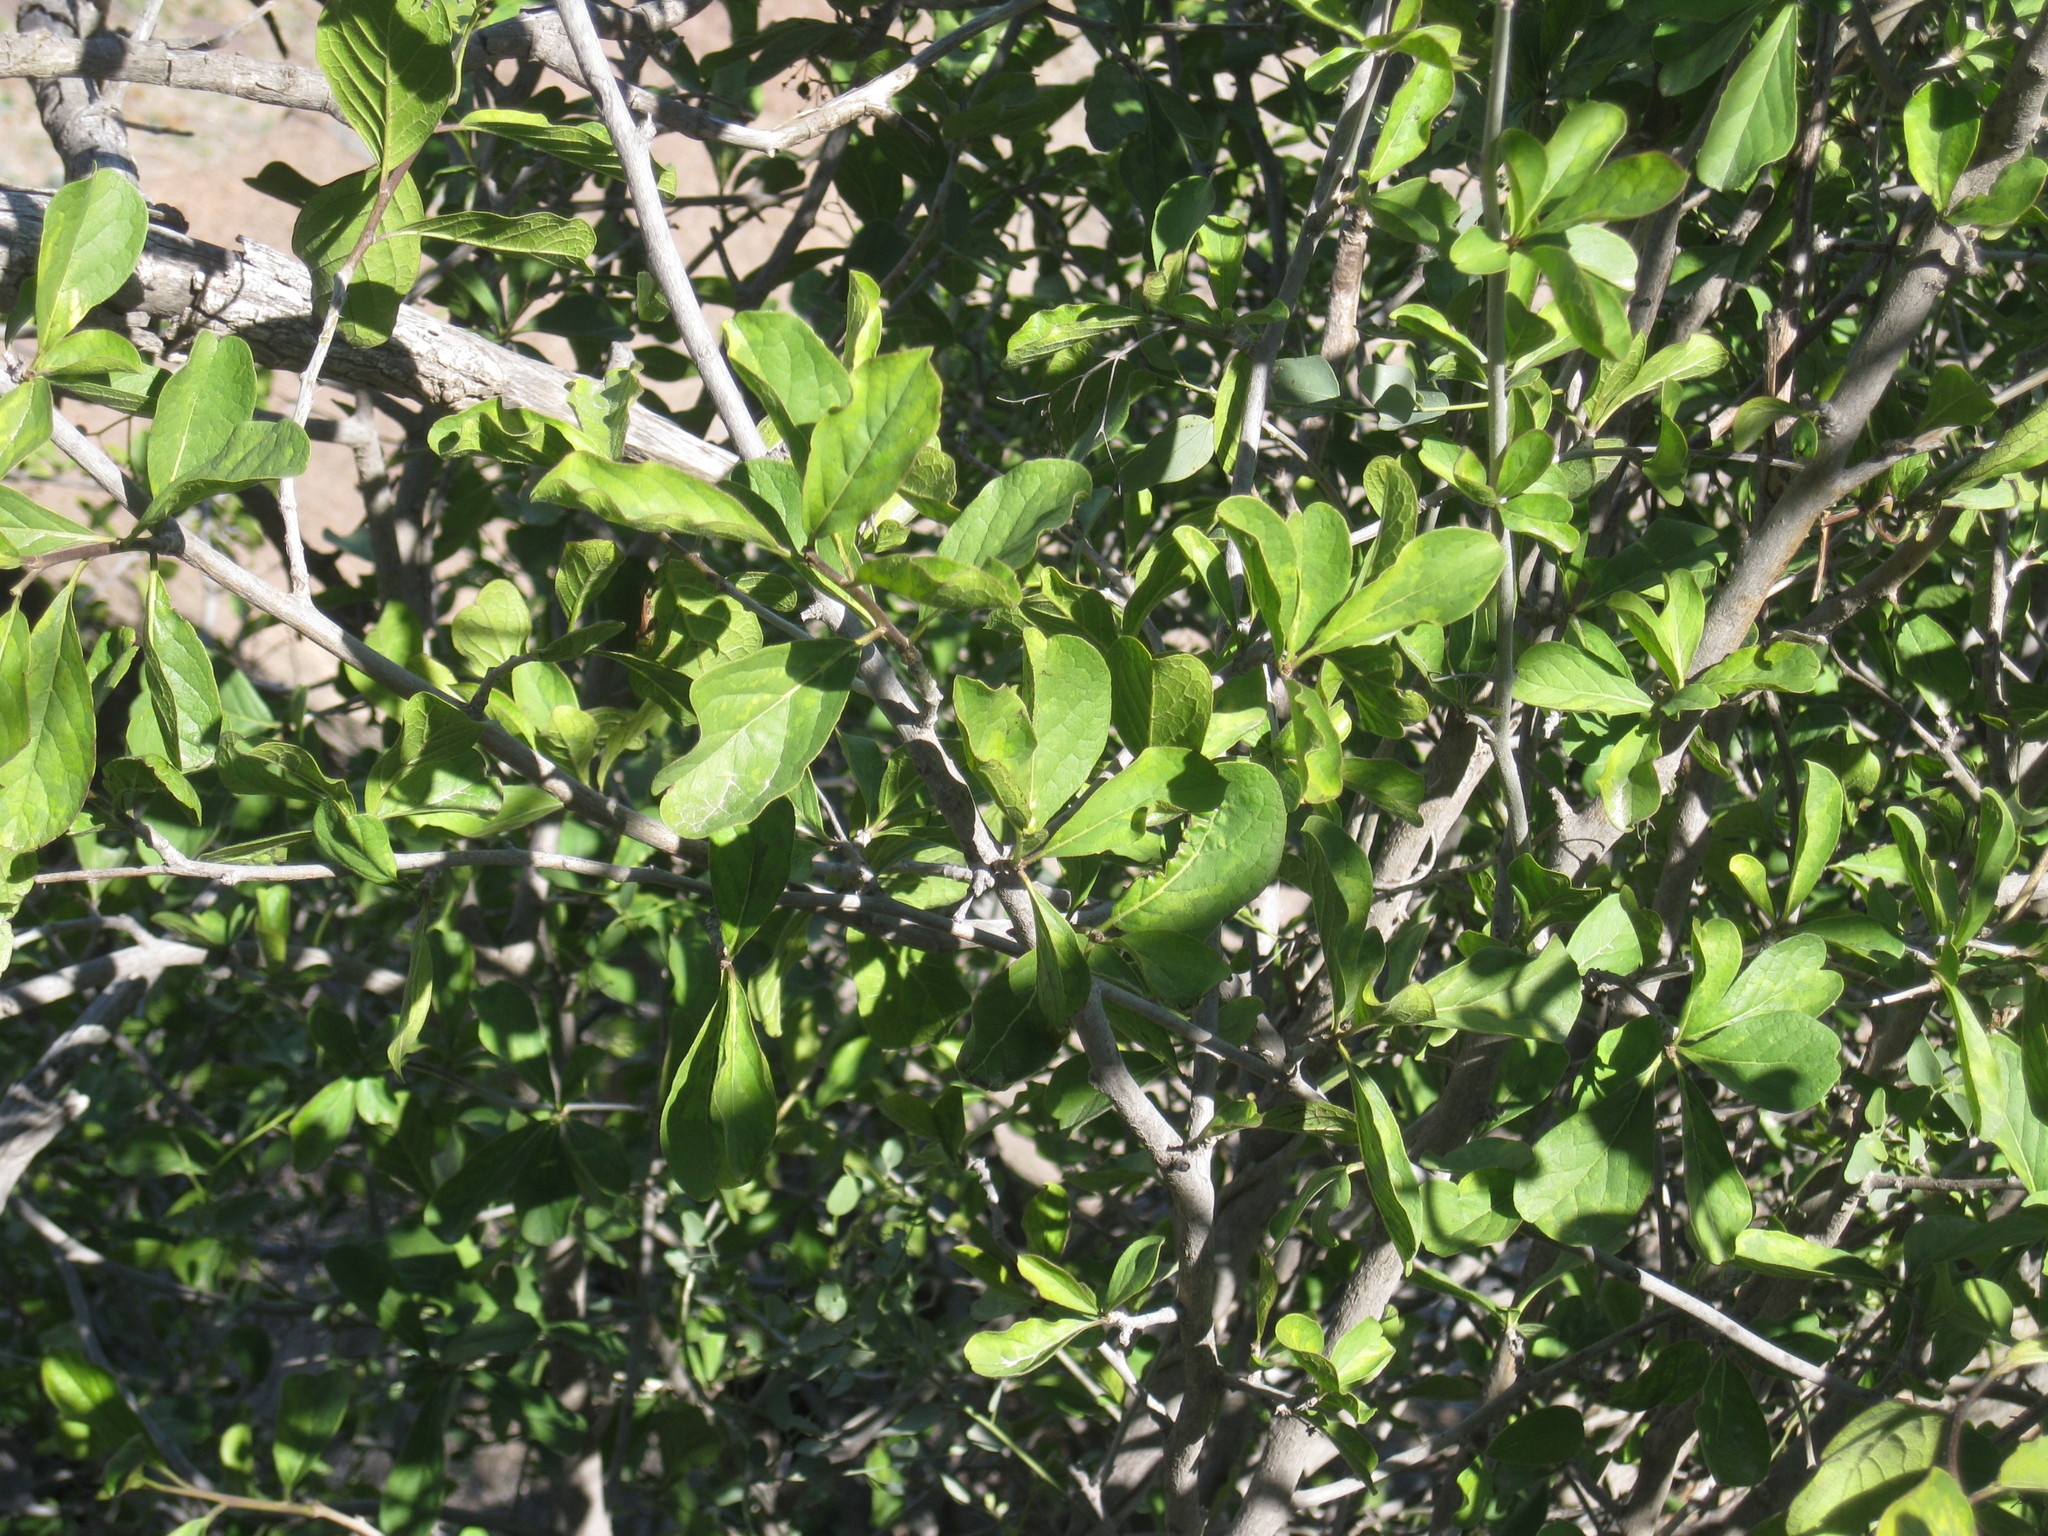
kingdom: Plantae
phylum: Tracheophyta
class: Magnoliopsida
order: Boraginales
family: Ehretiaceae
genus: Ehretia
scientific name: Ehretia obtusifolia
